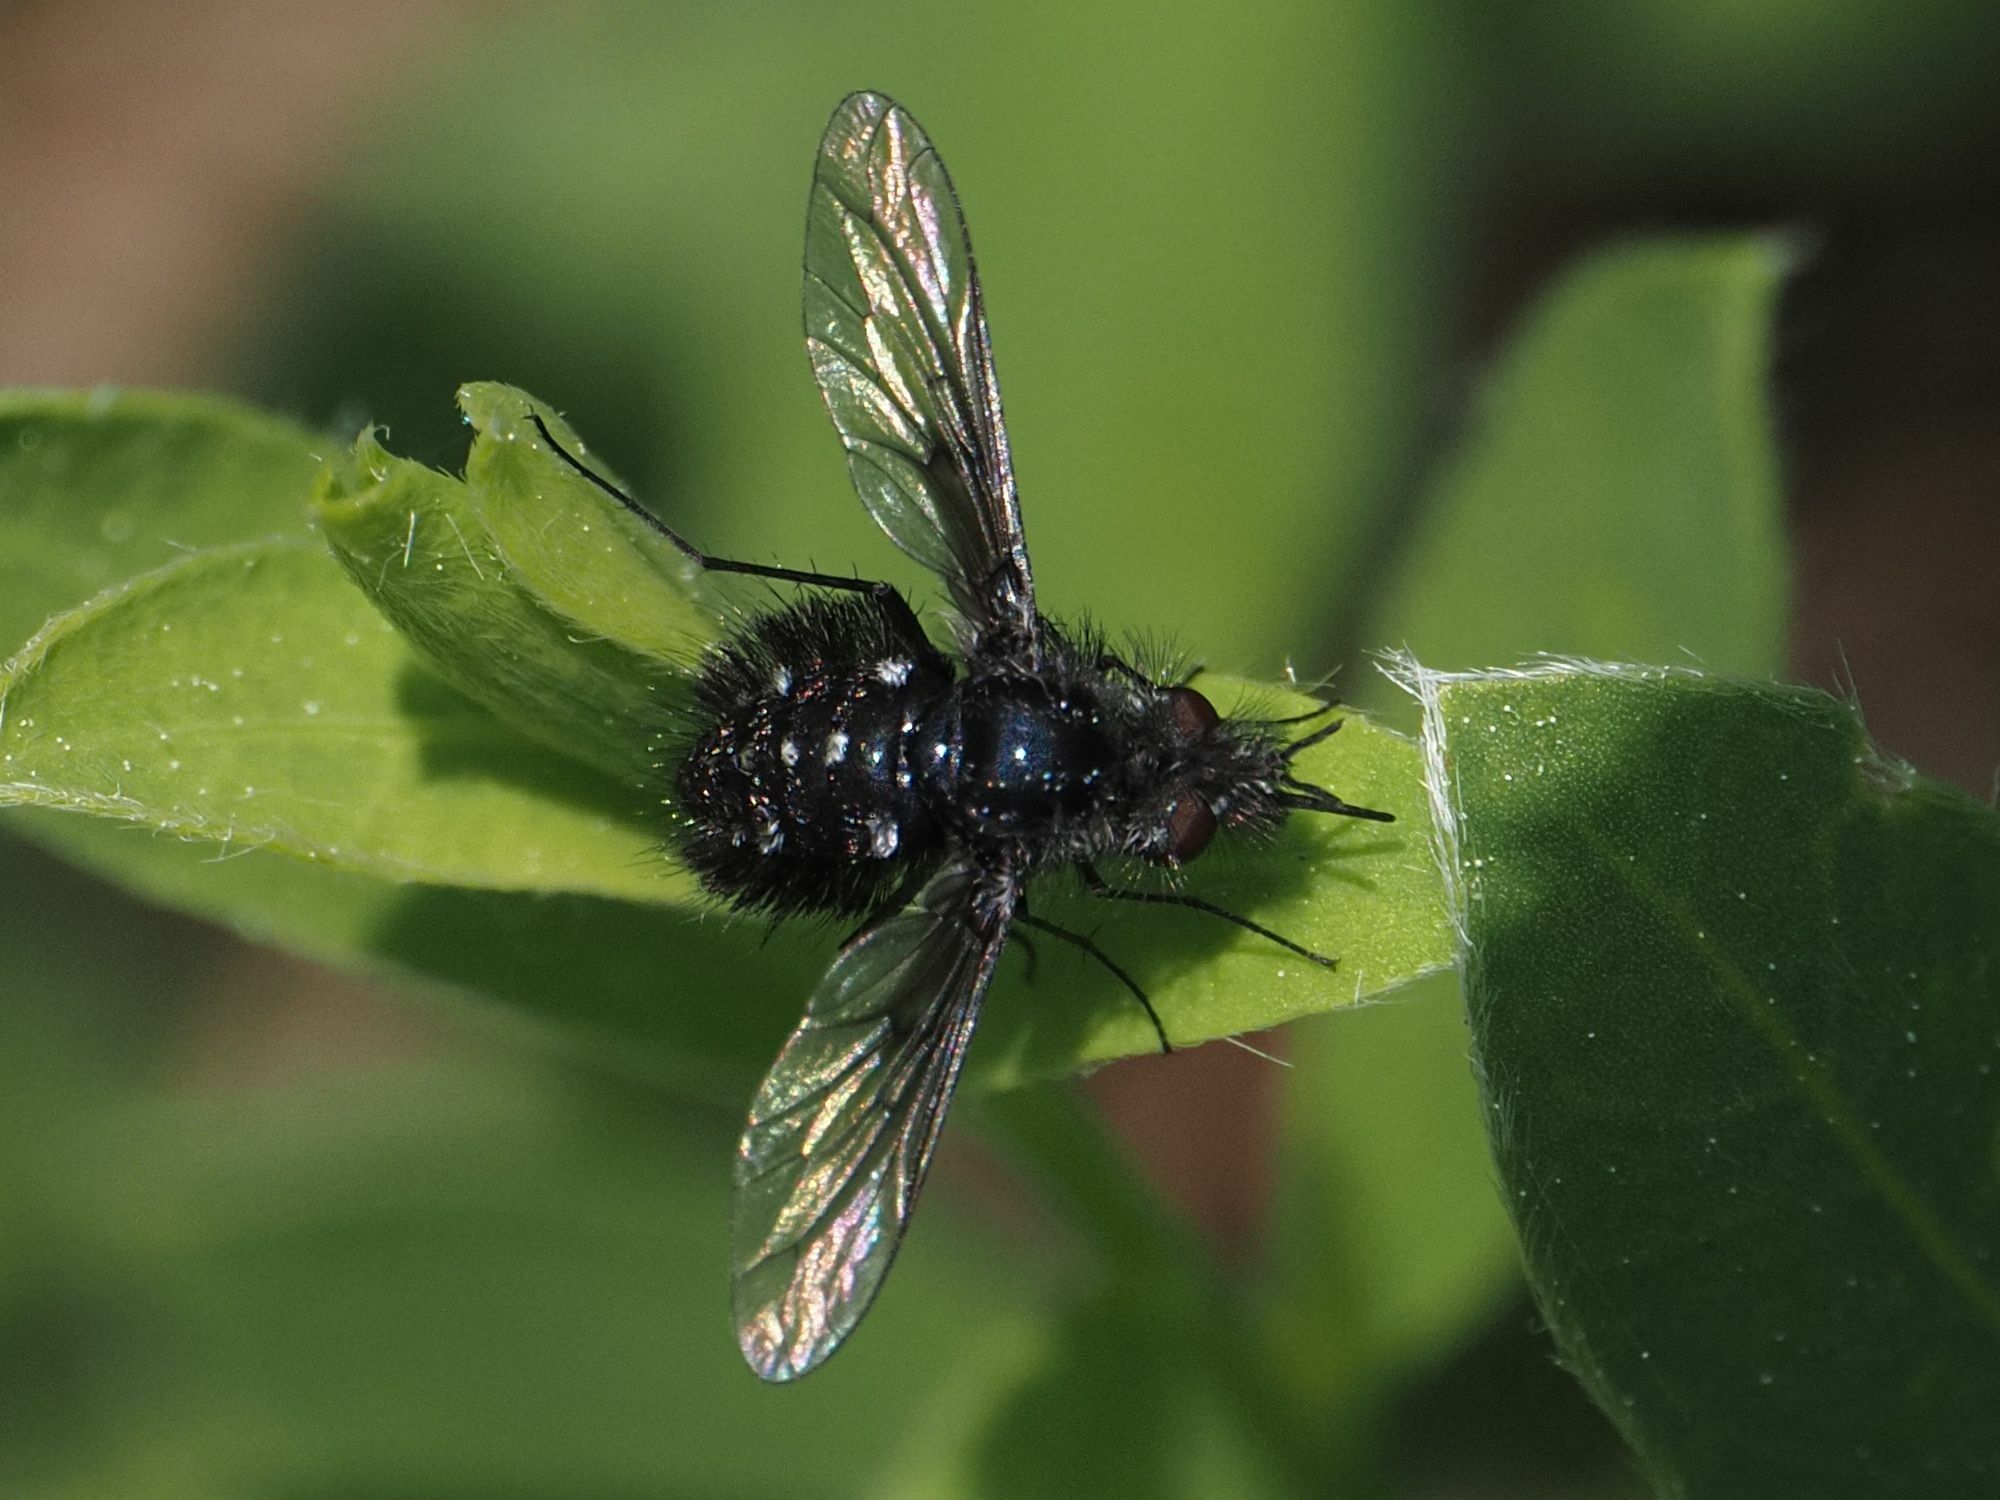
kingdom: Animalia
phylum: Arthropoda
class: Insecta
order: Diptera
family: Bombyliidae
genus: Bombylella
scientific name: Bombylella atra
